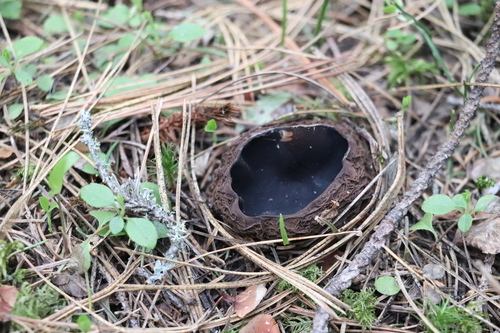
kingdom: Fungi
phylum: Ascomycota
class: Pezizomycetes
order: Pezizales
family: Sarcosomataceae
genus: Sarcosoma
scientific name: Sarcosoma globosum
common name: Charred-pancake cup
